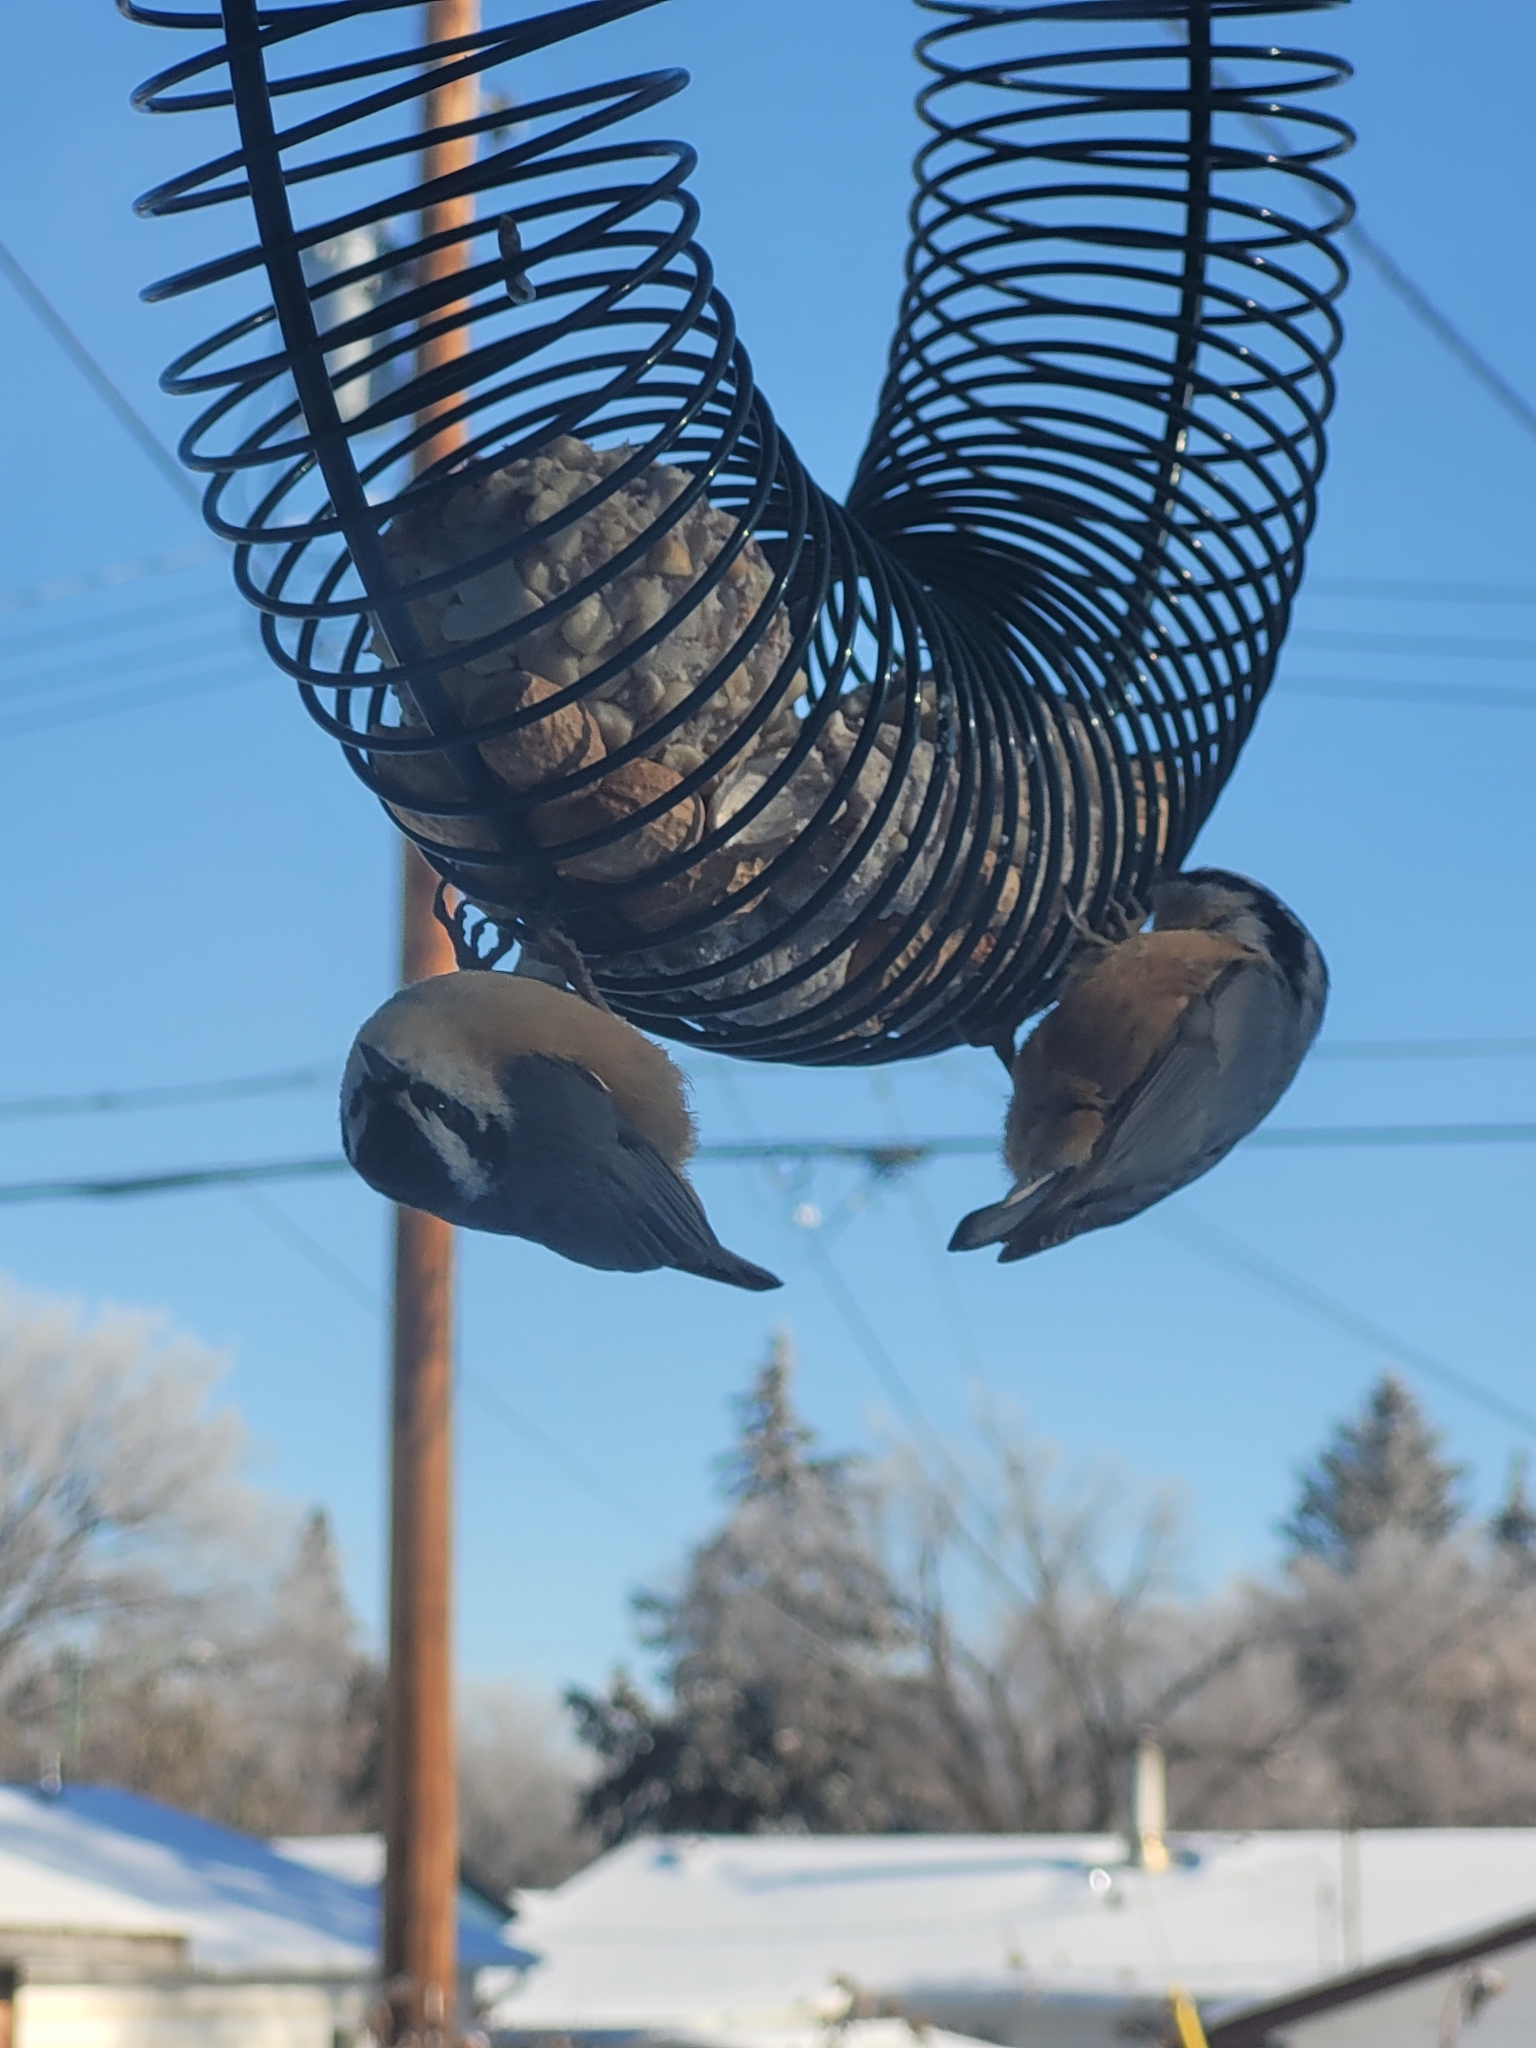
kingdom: Animalia
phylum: Chordata
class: Aves
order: Passeriformes
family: Sittidae
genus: Sitta
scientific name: Sitta canadensis
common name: Red-breasted nuthatch
